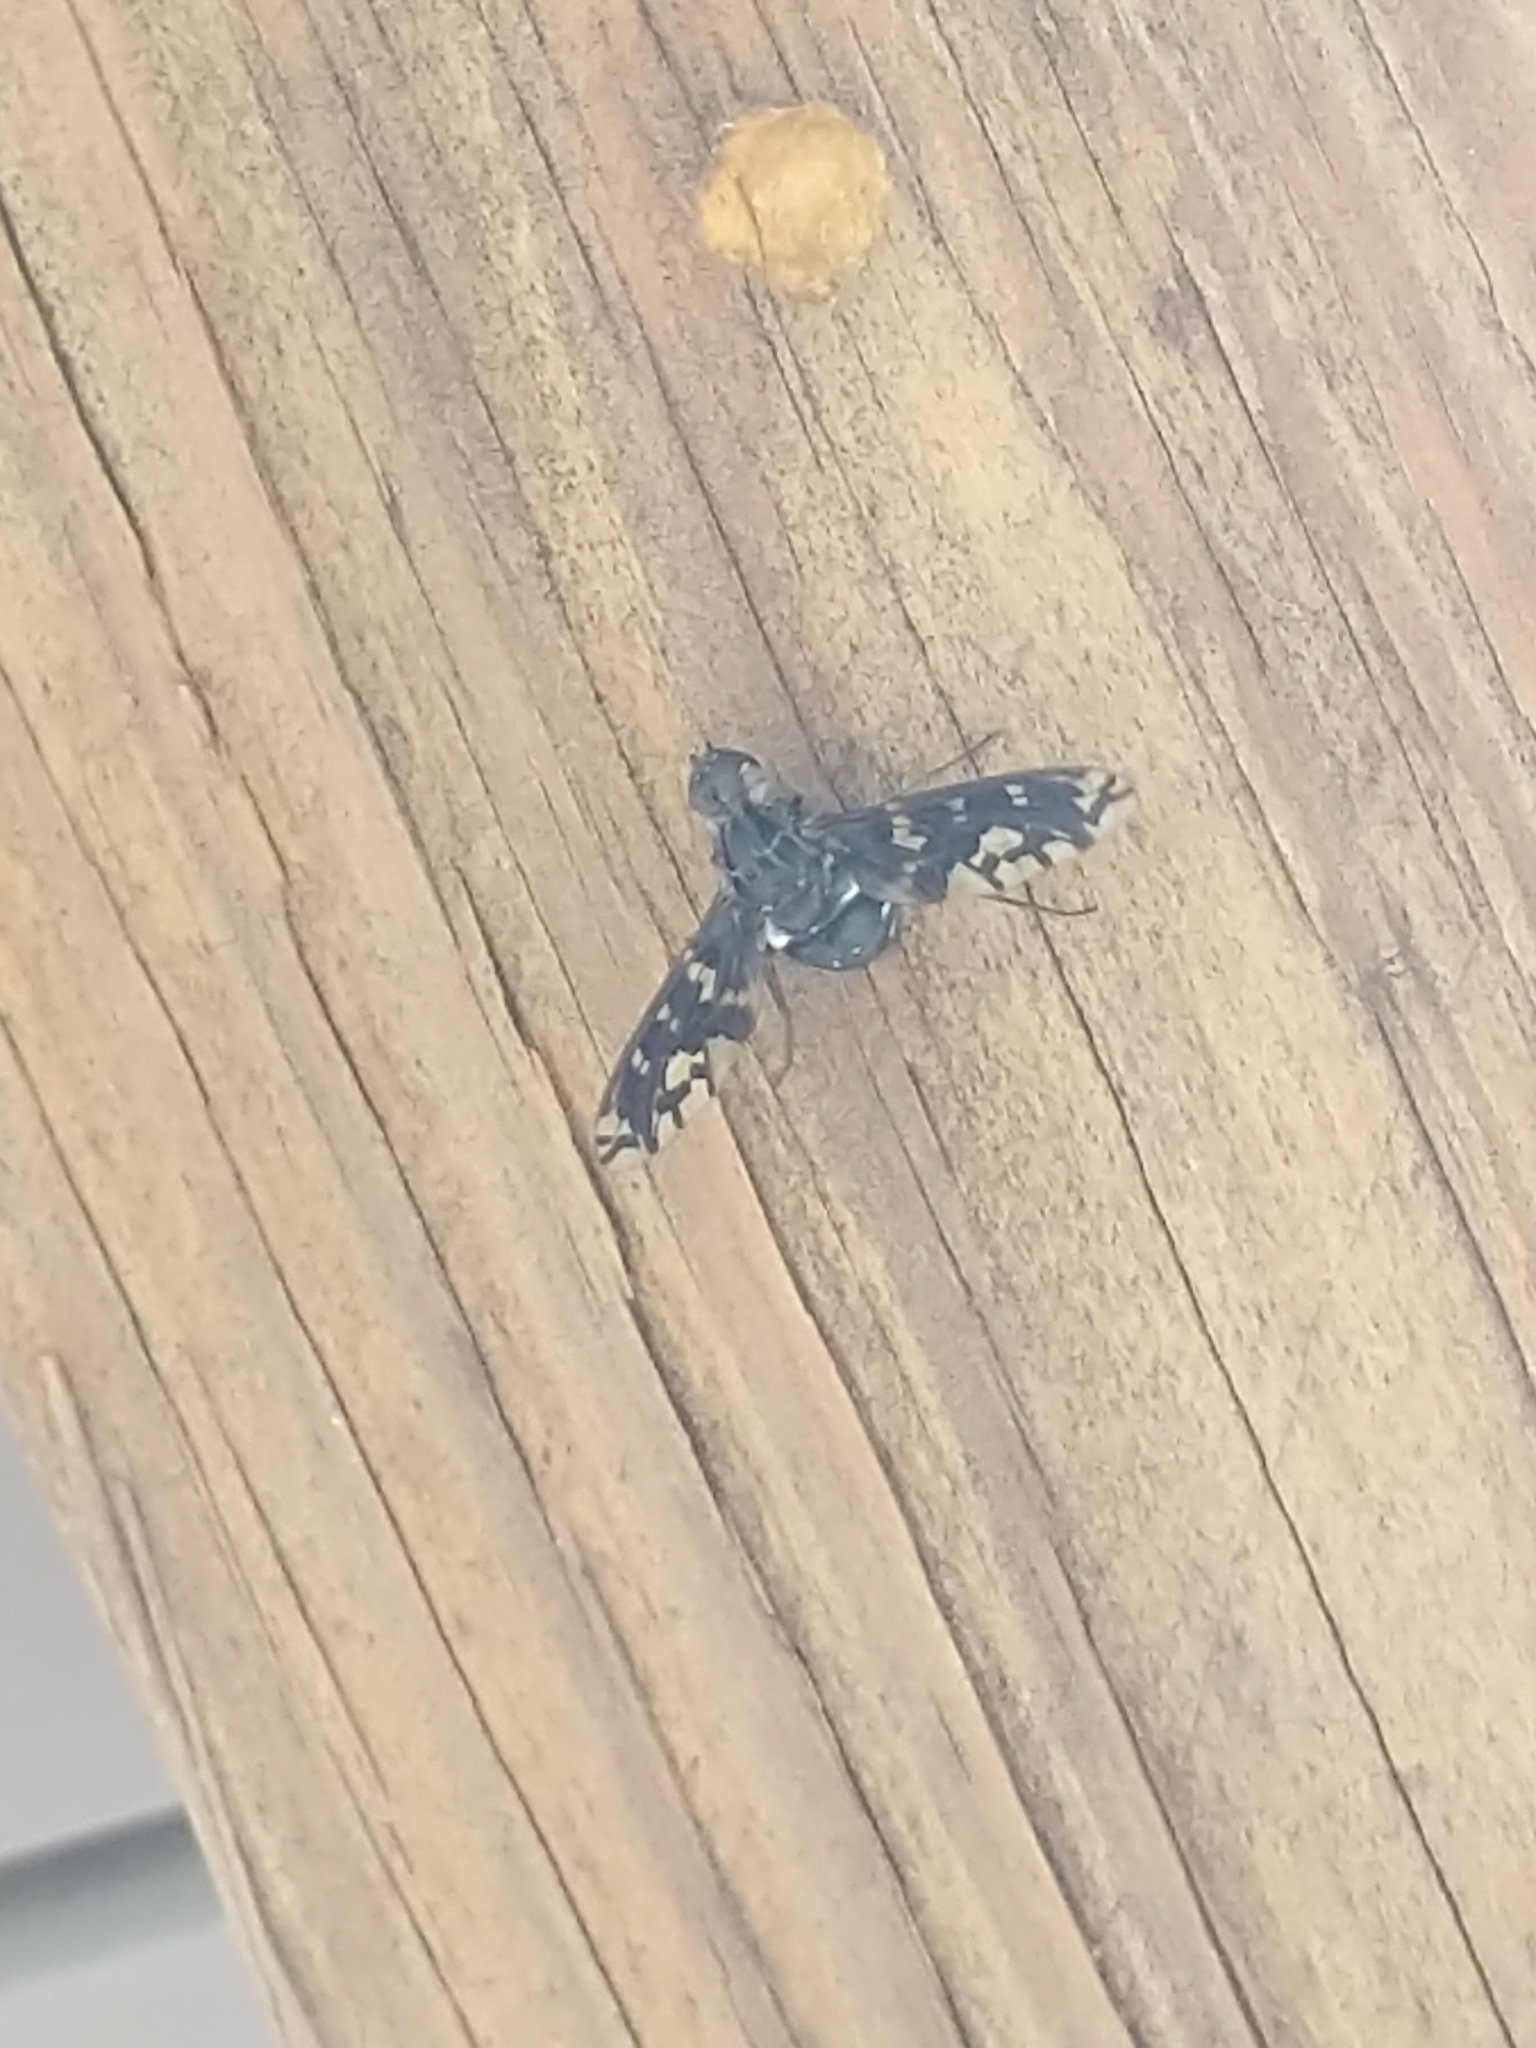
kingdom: Animalia
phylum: Arthropoda
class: Insecta
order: Diptera
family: Bombyliidae
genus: Xenox
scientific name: Xenox tigrinus
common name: Tiger bee fly
